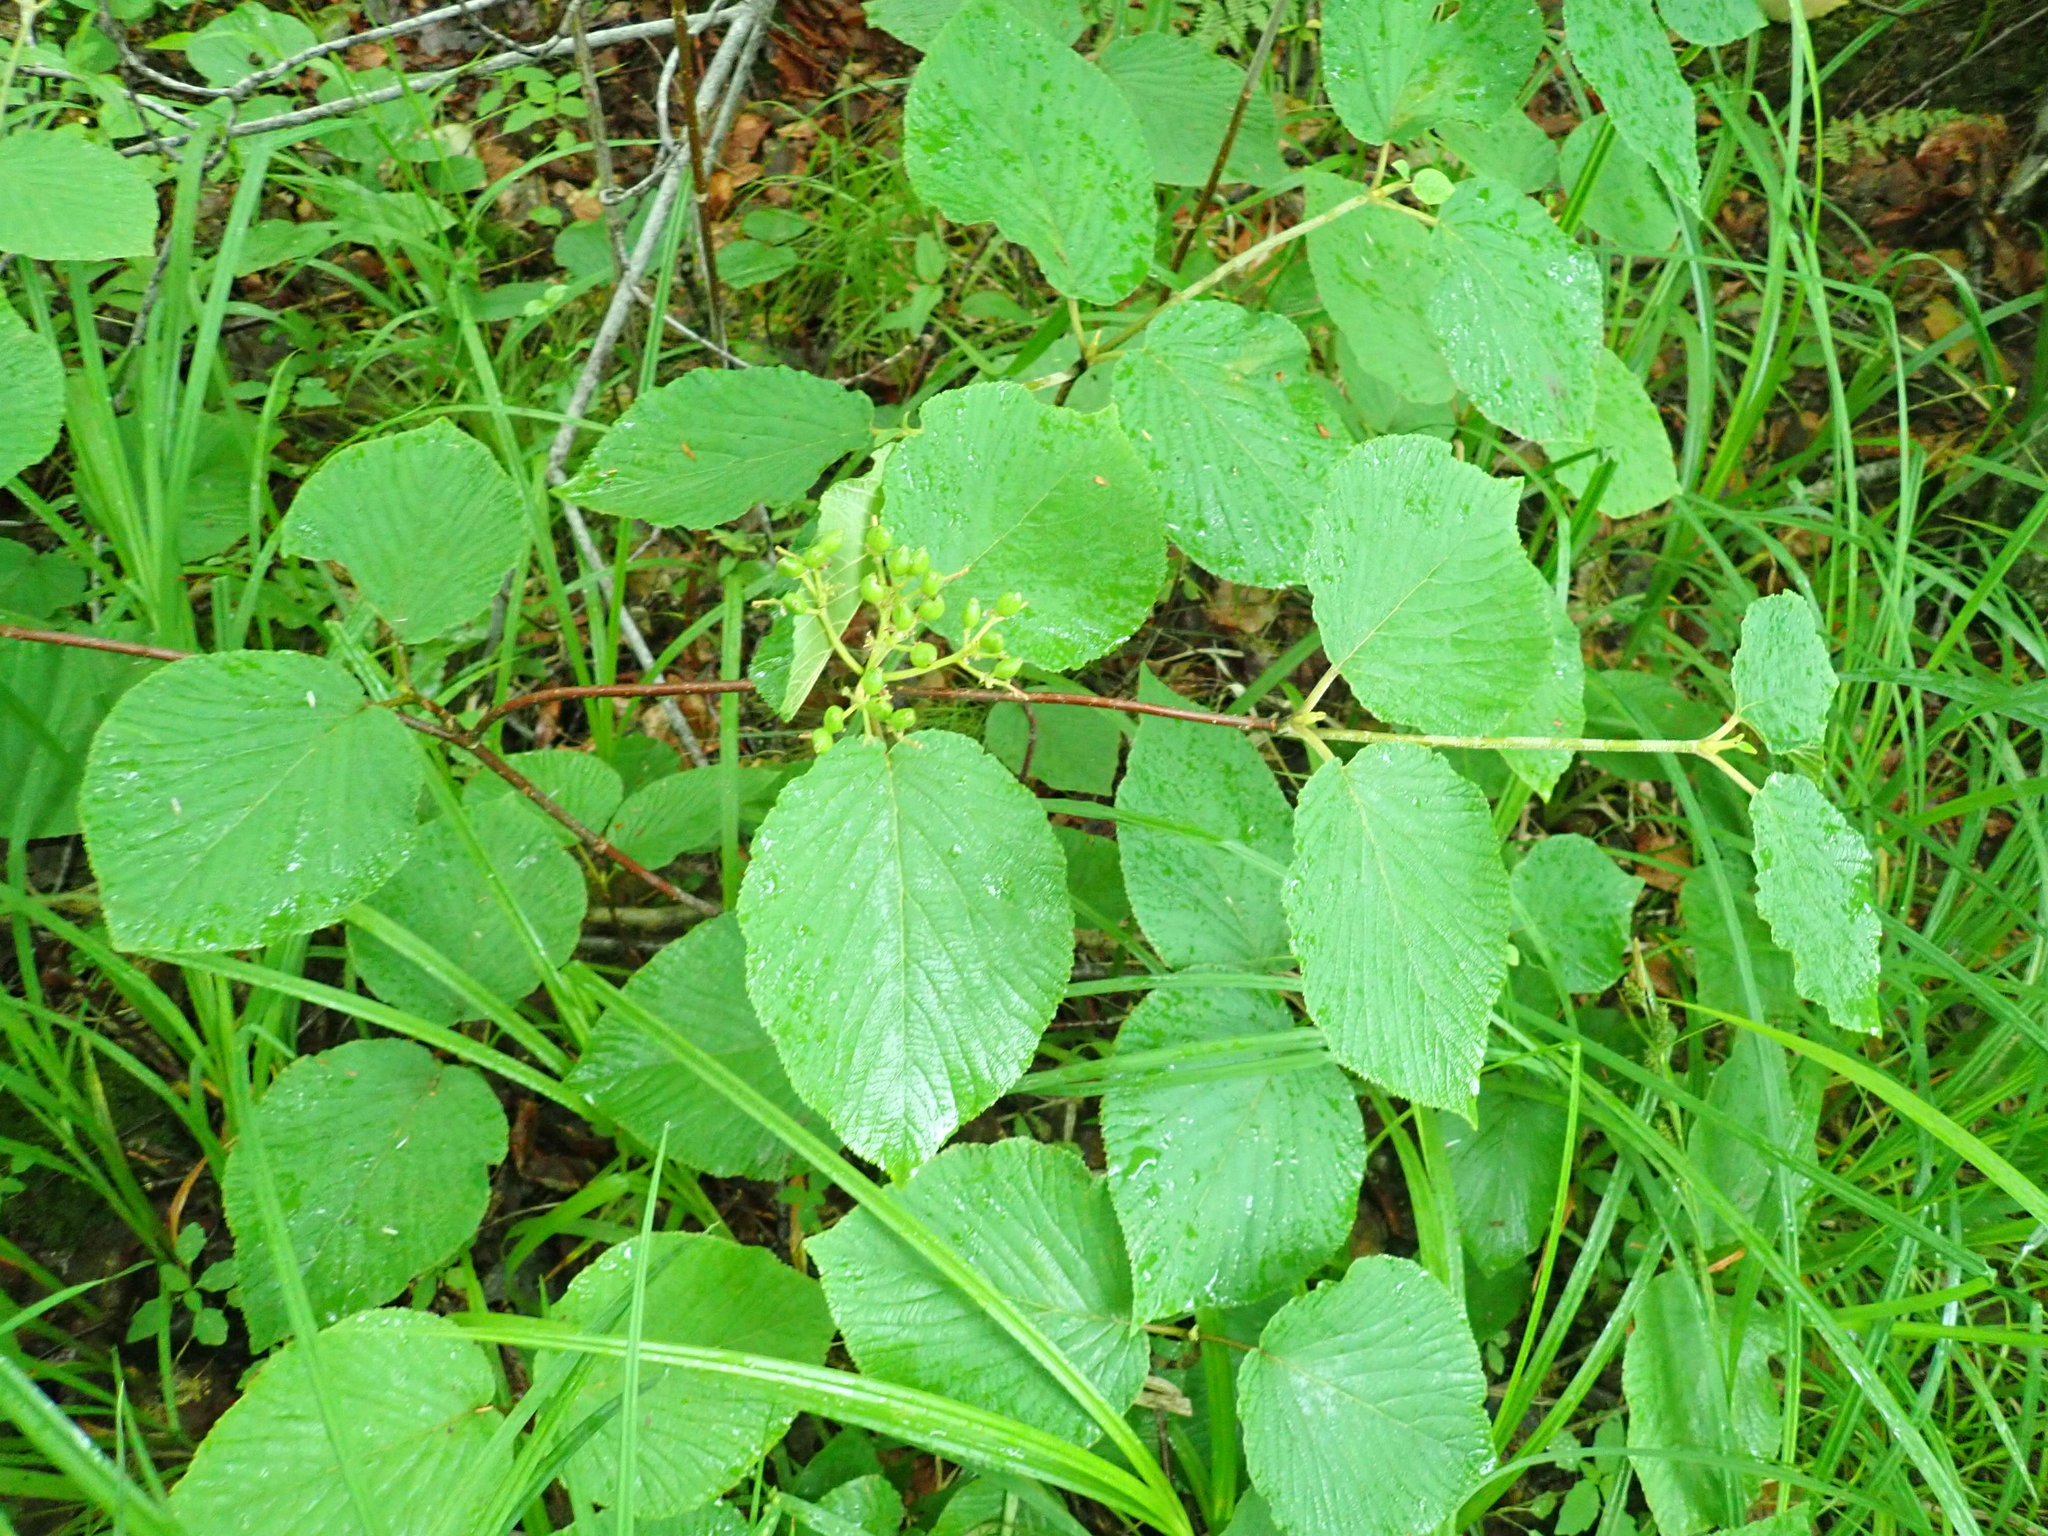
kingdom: Plantae
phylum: Tracheophyta
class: Magnoliopsida
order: Dipsacales
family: Viburnaceae
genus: Viburnum
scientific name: Viburnum lantanoides
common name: Hobblebush
